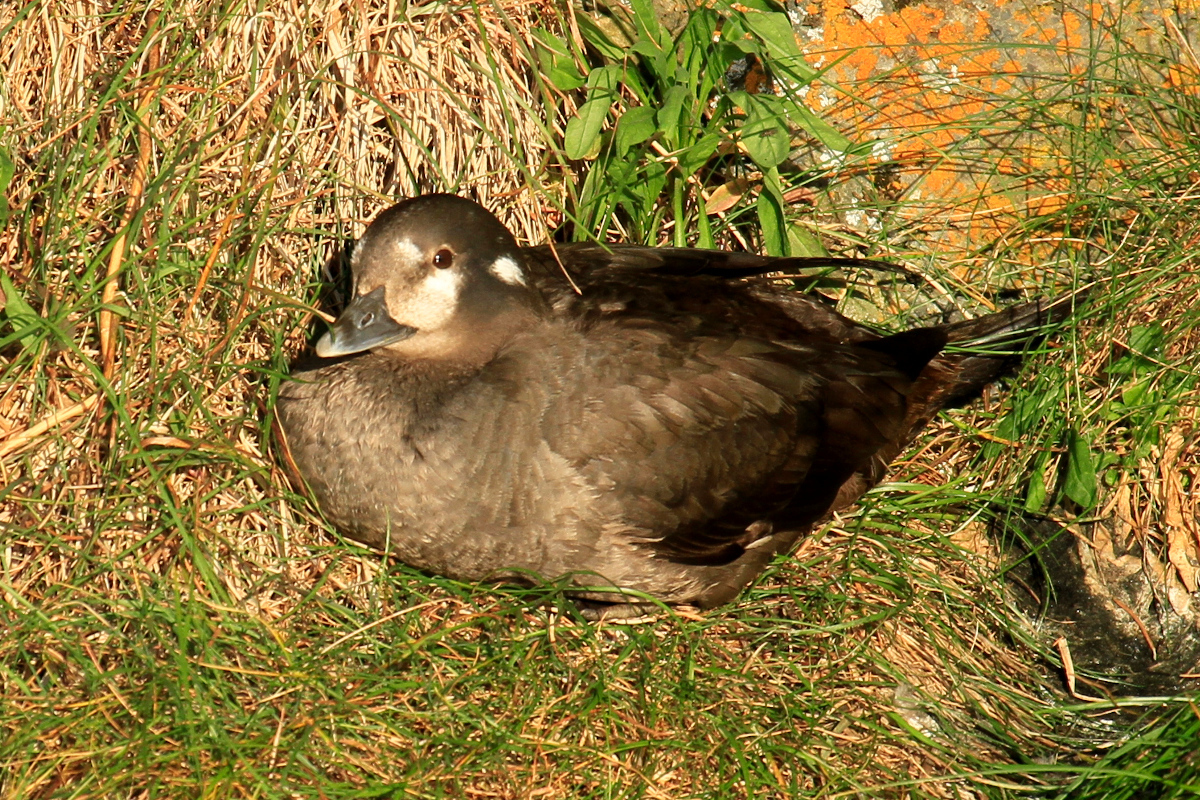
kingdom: Animalia
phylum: Chordata
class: Aves
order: Anseriformes
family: Anatidae
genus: Histrionicus
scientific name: Histrionicus histrionicus
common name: Harlequin duck
